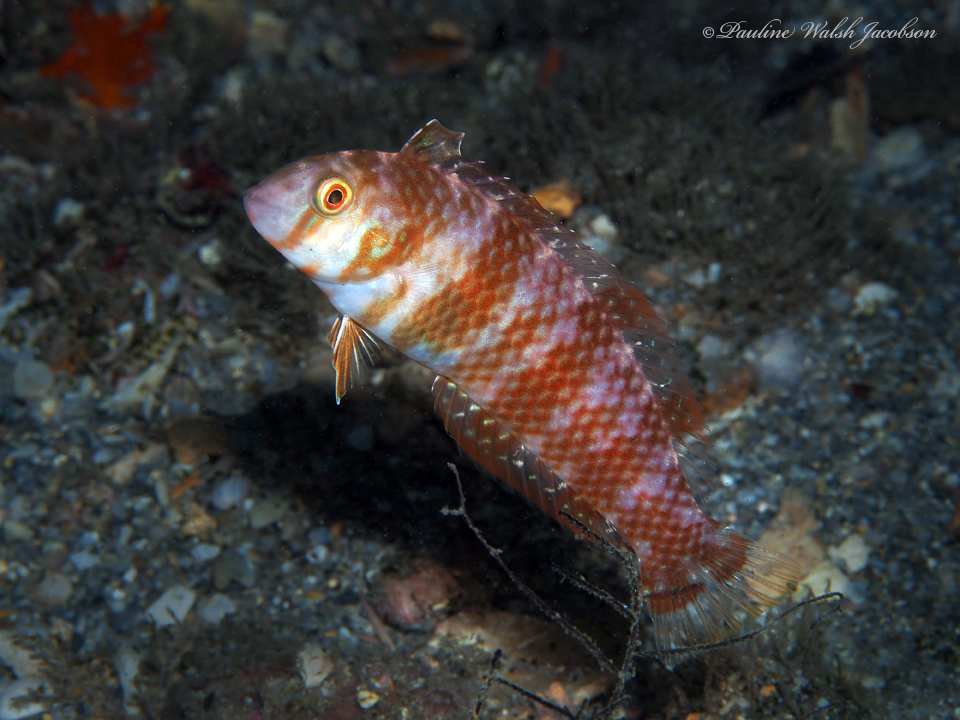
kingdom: Animalia
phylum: Chordata
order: Perciformes
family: Labridae
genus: Xyrichtys
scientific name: Xyrichtys splendens
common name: Green razorfish
